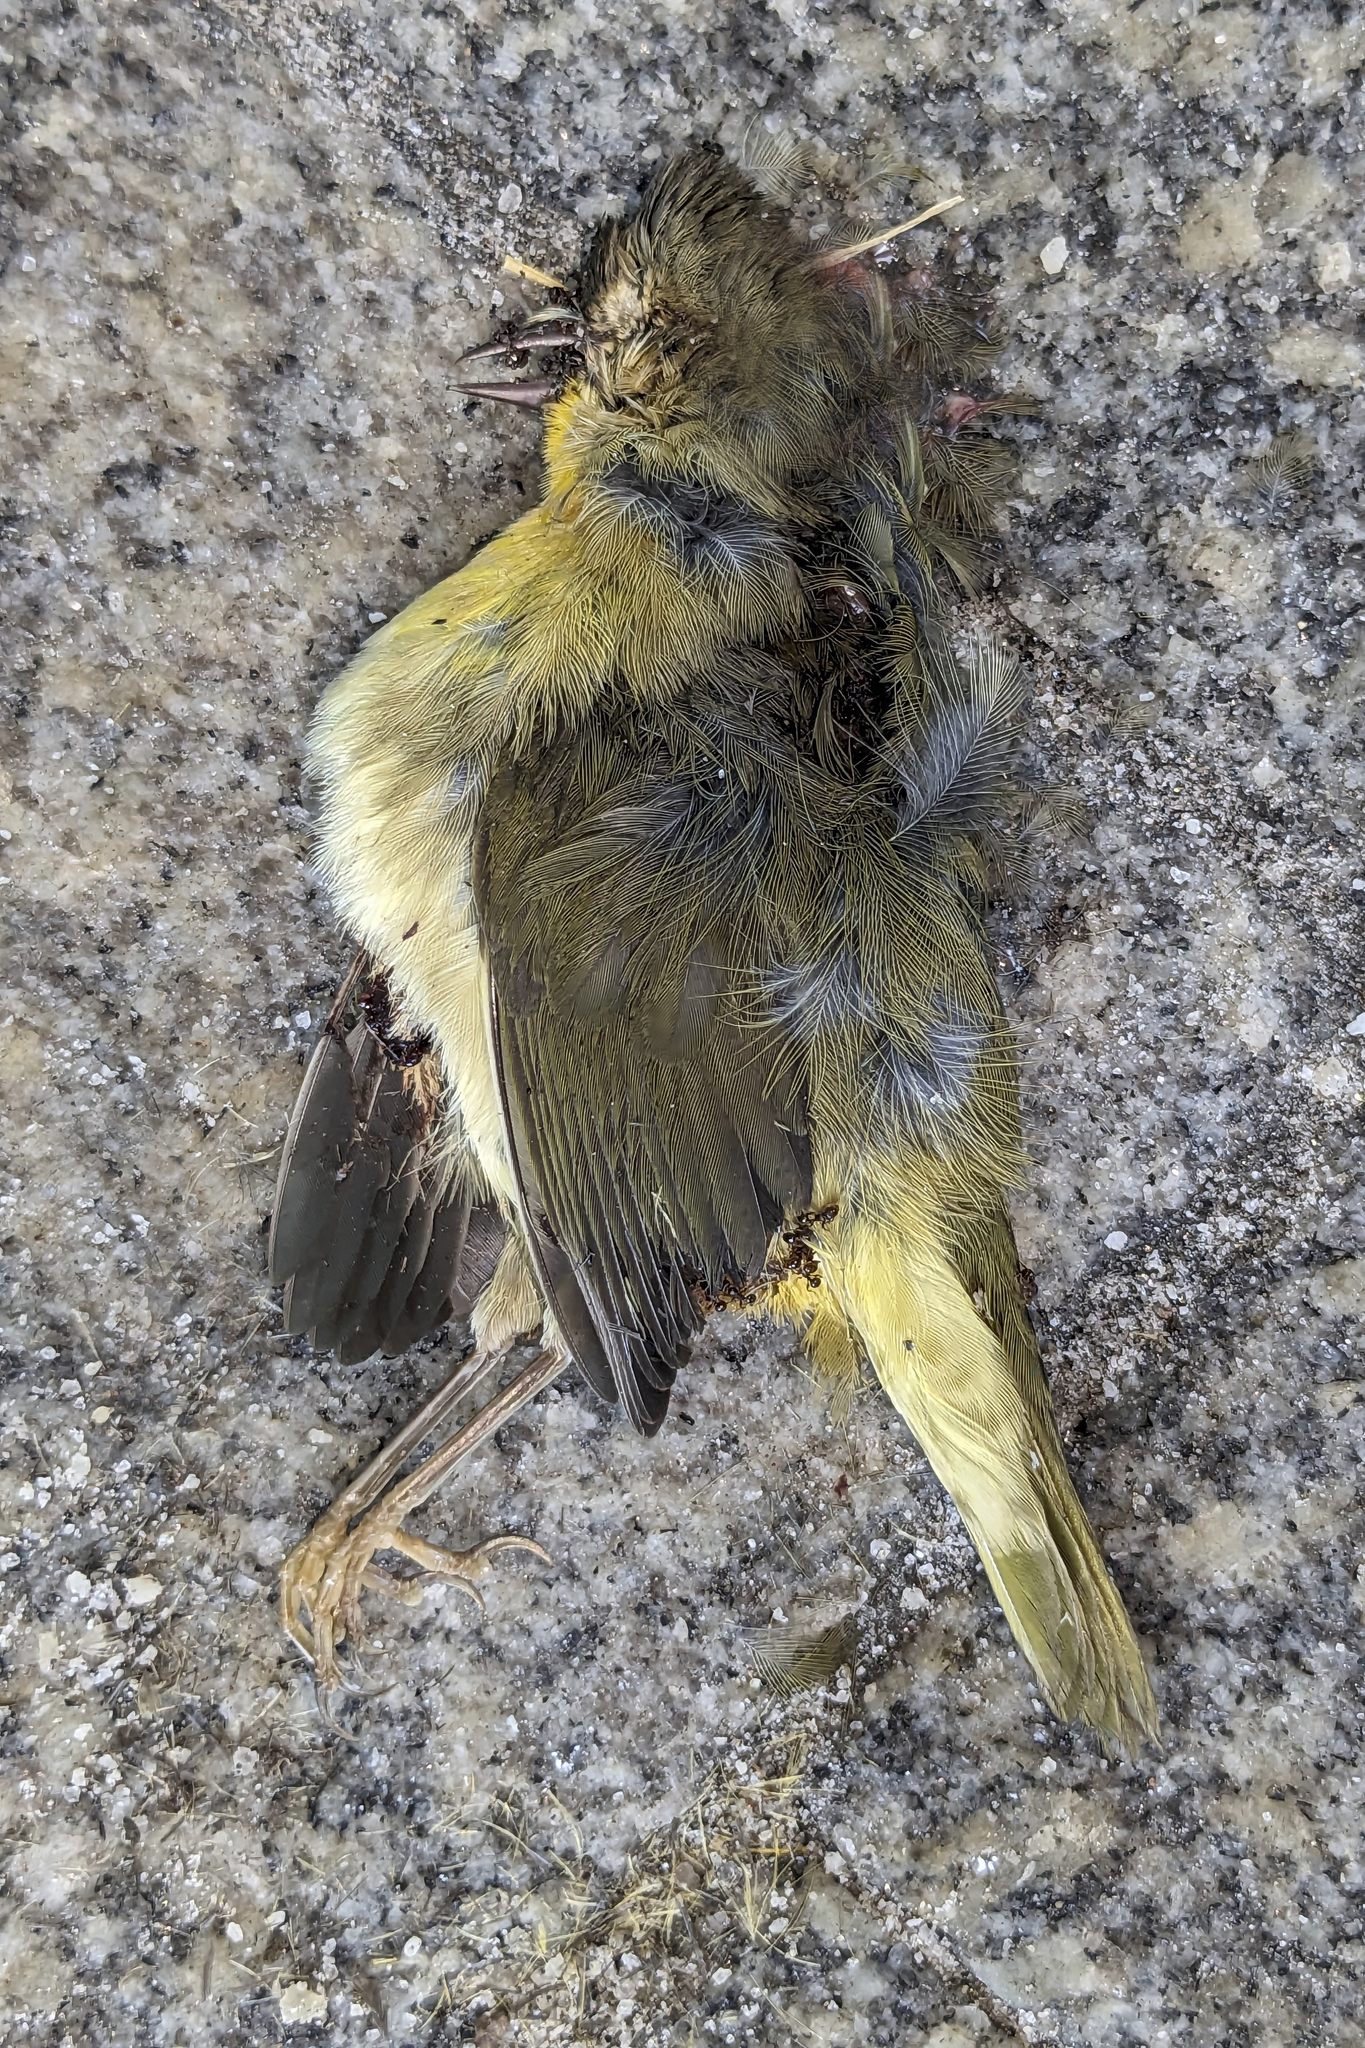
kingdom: Animalia
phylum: Chordata
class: Aves
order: Passeriformes
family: Parulidae
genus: Geothlypis
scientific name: Geothlypis trichas
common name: Common yellowthroat
